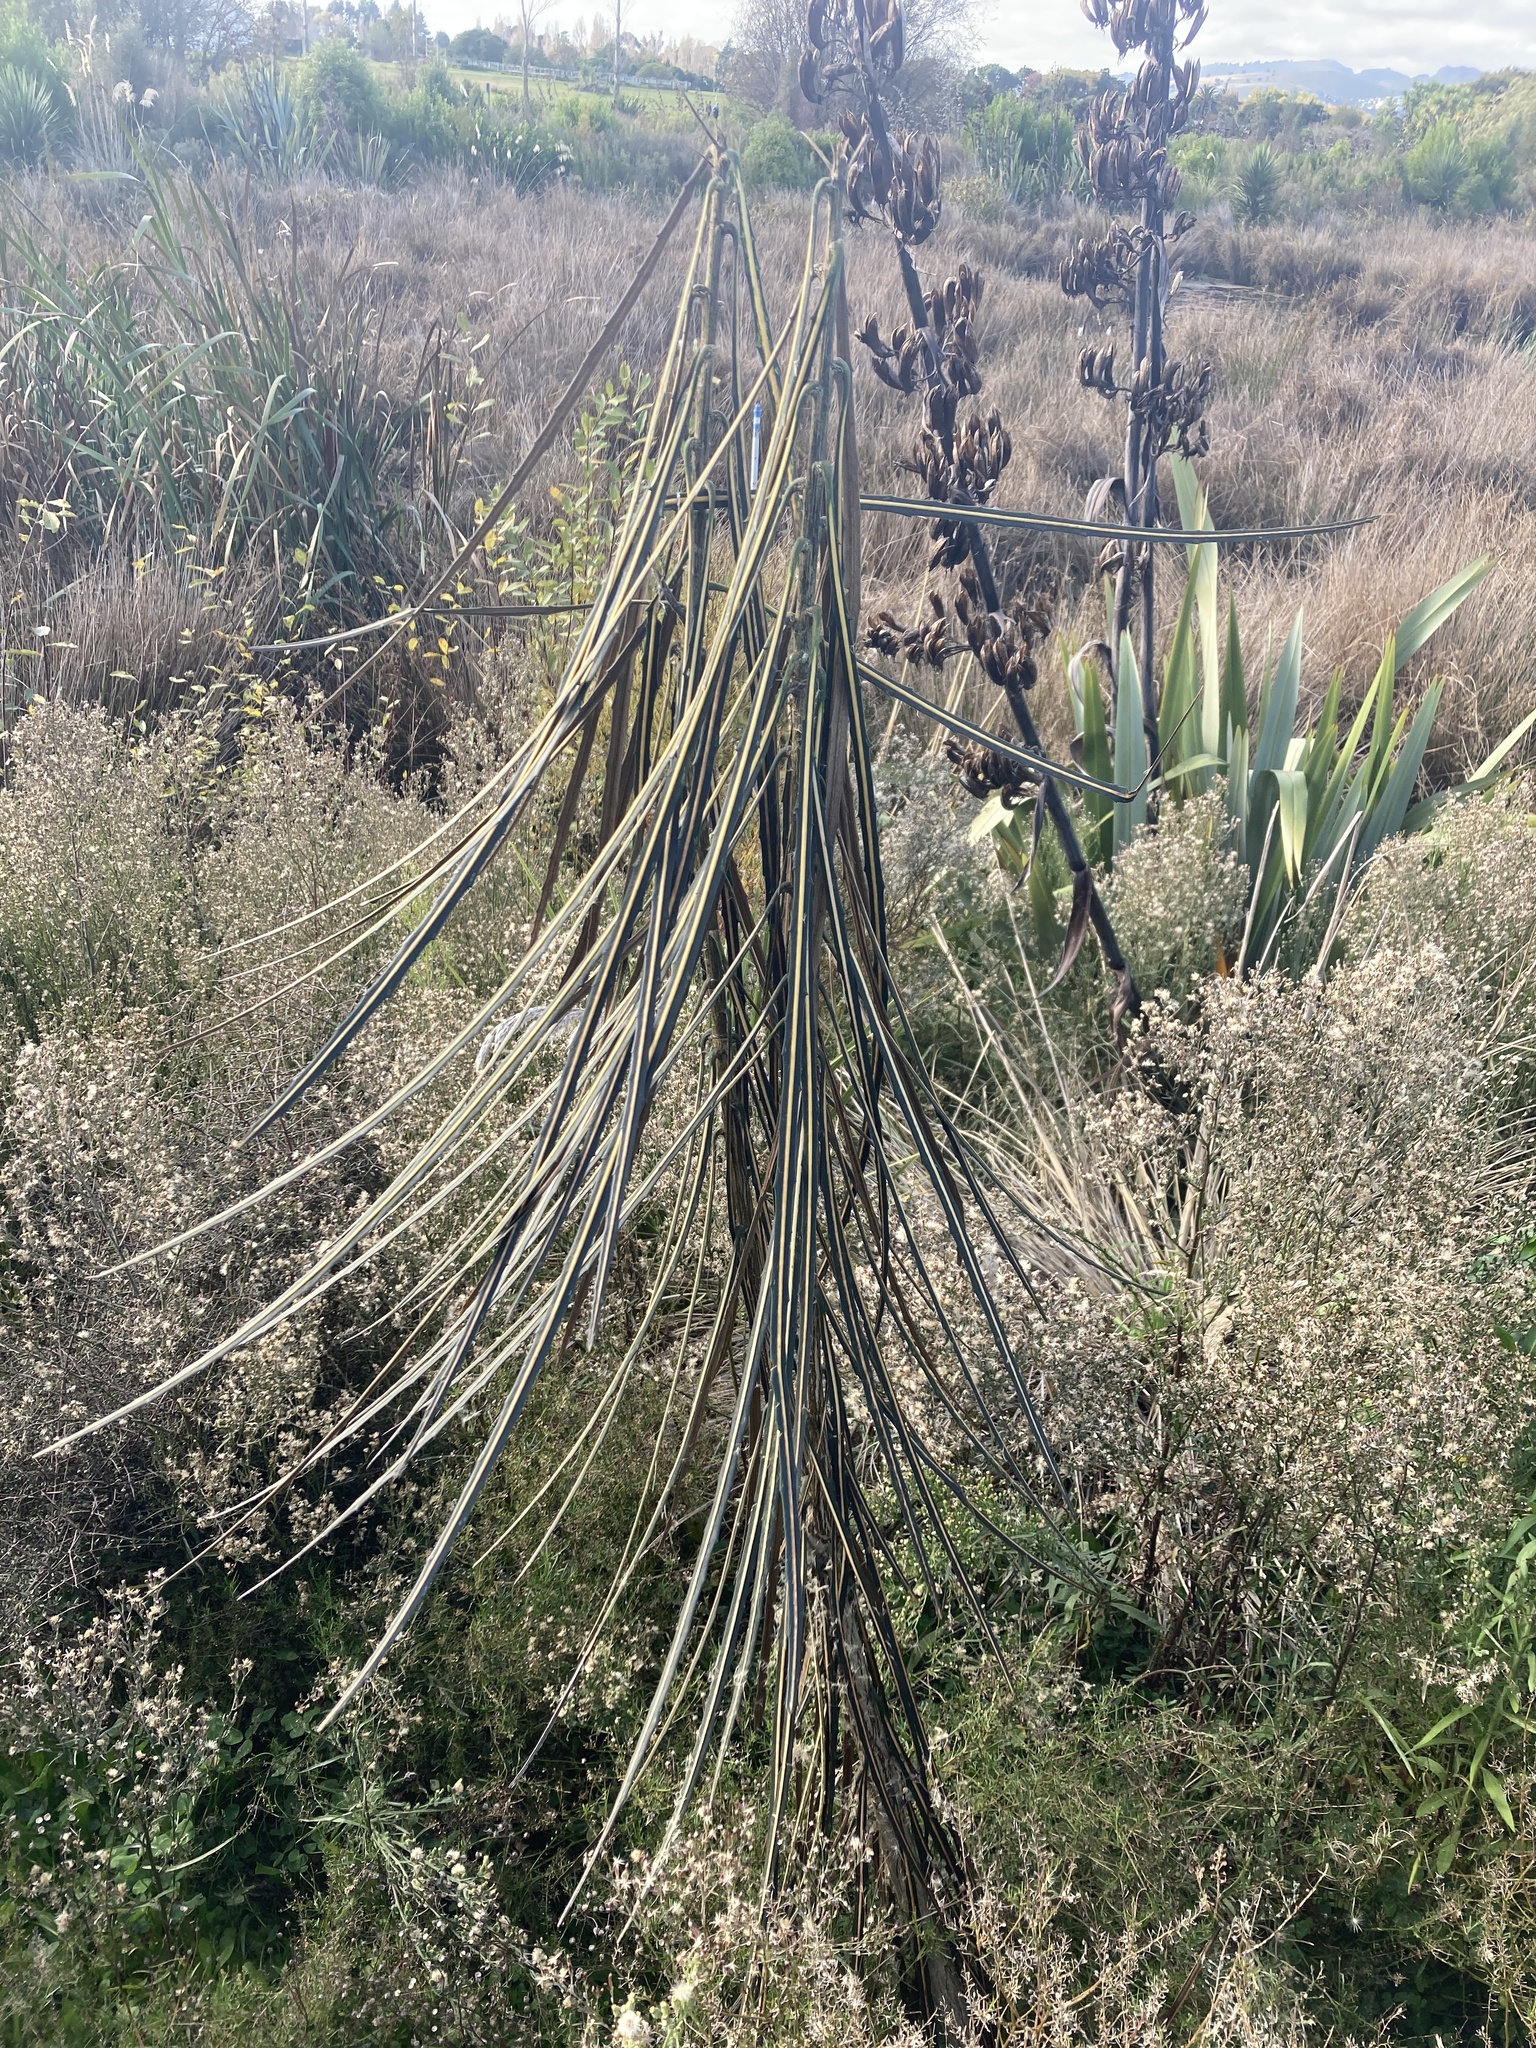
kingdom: Plantae
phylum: Tracheophyta
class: Magnoliopsida
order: Apiales
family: Araliaceae
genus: Pseudopanax
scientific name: Pseudopanax crassifolius
